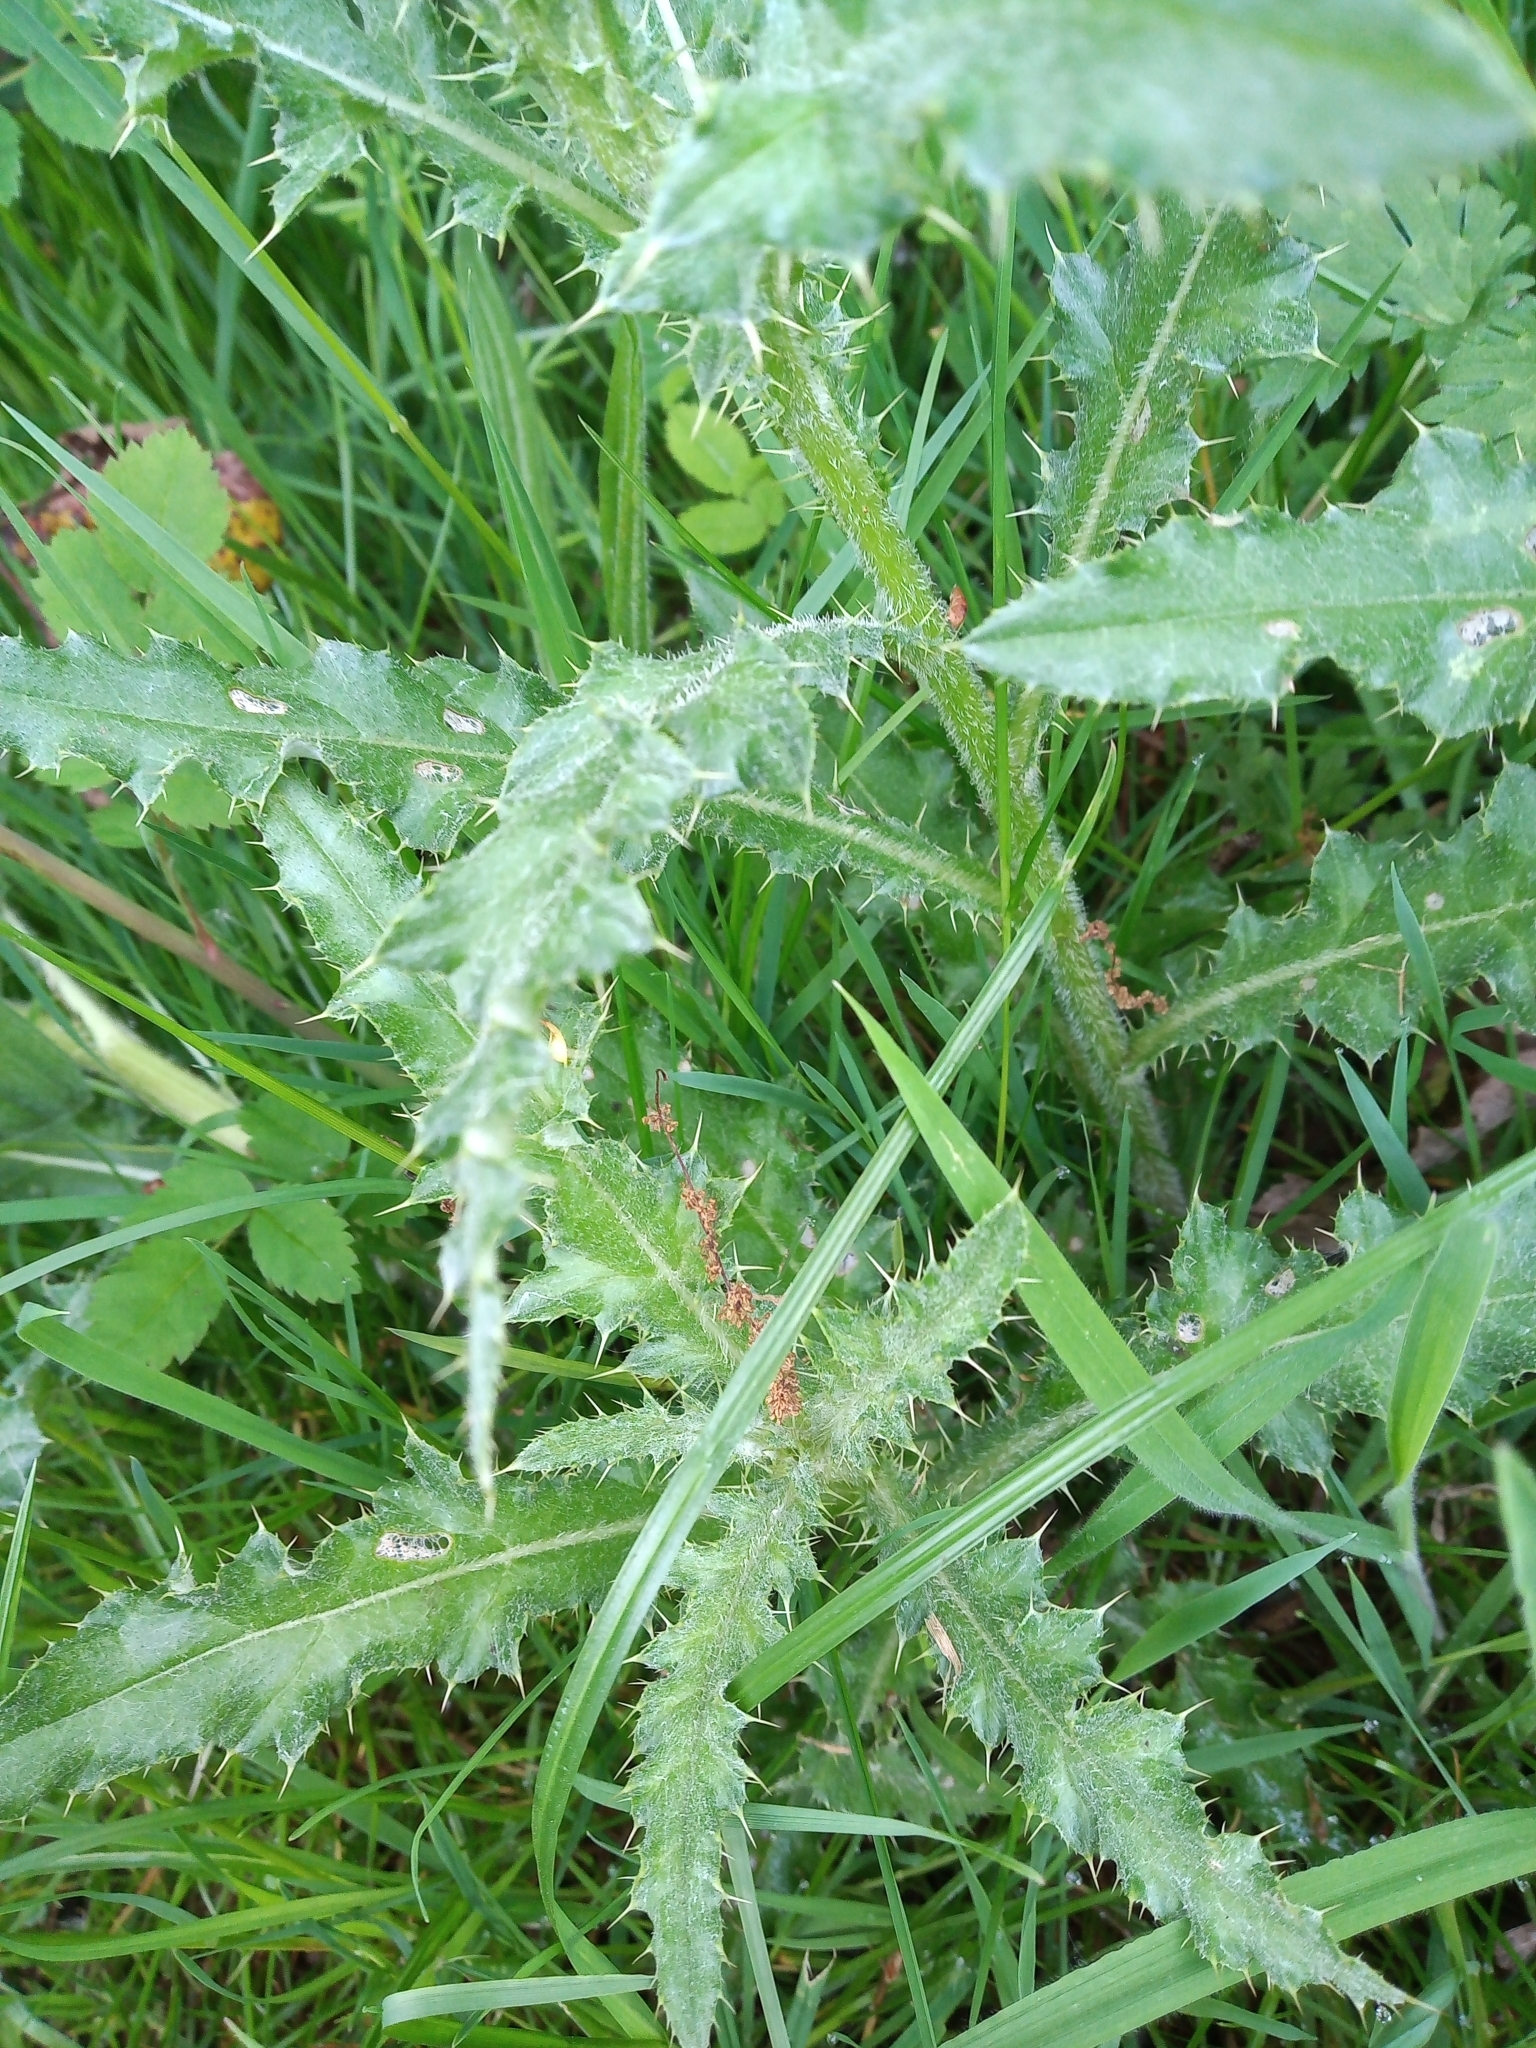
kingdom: Plantae
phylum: Tracheophyta
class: Magnoliopsida
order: Asterales
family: Asteraceae
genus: Cirsium
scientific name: Cirsium arvense
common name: Creeping thistle
